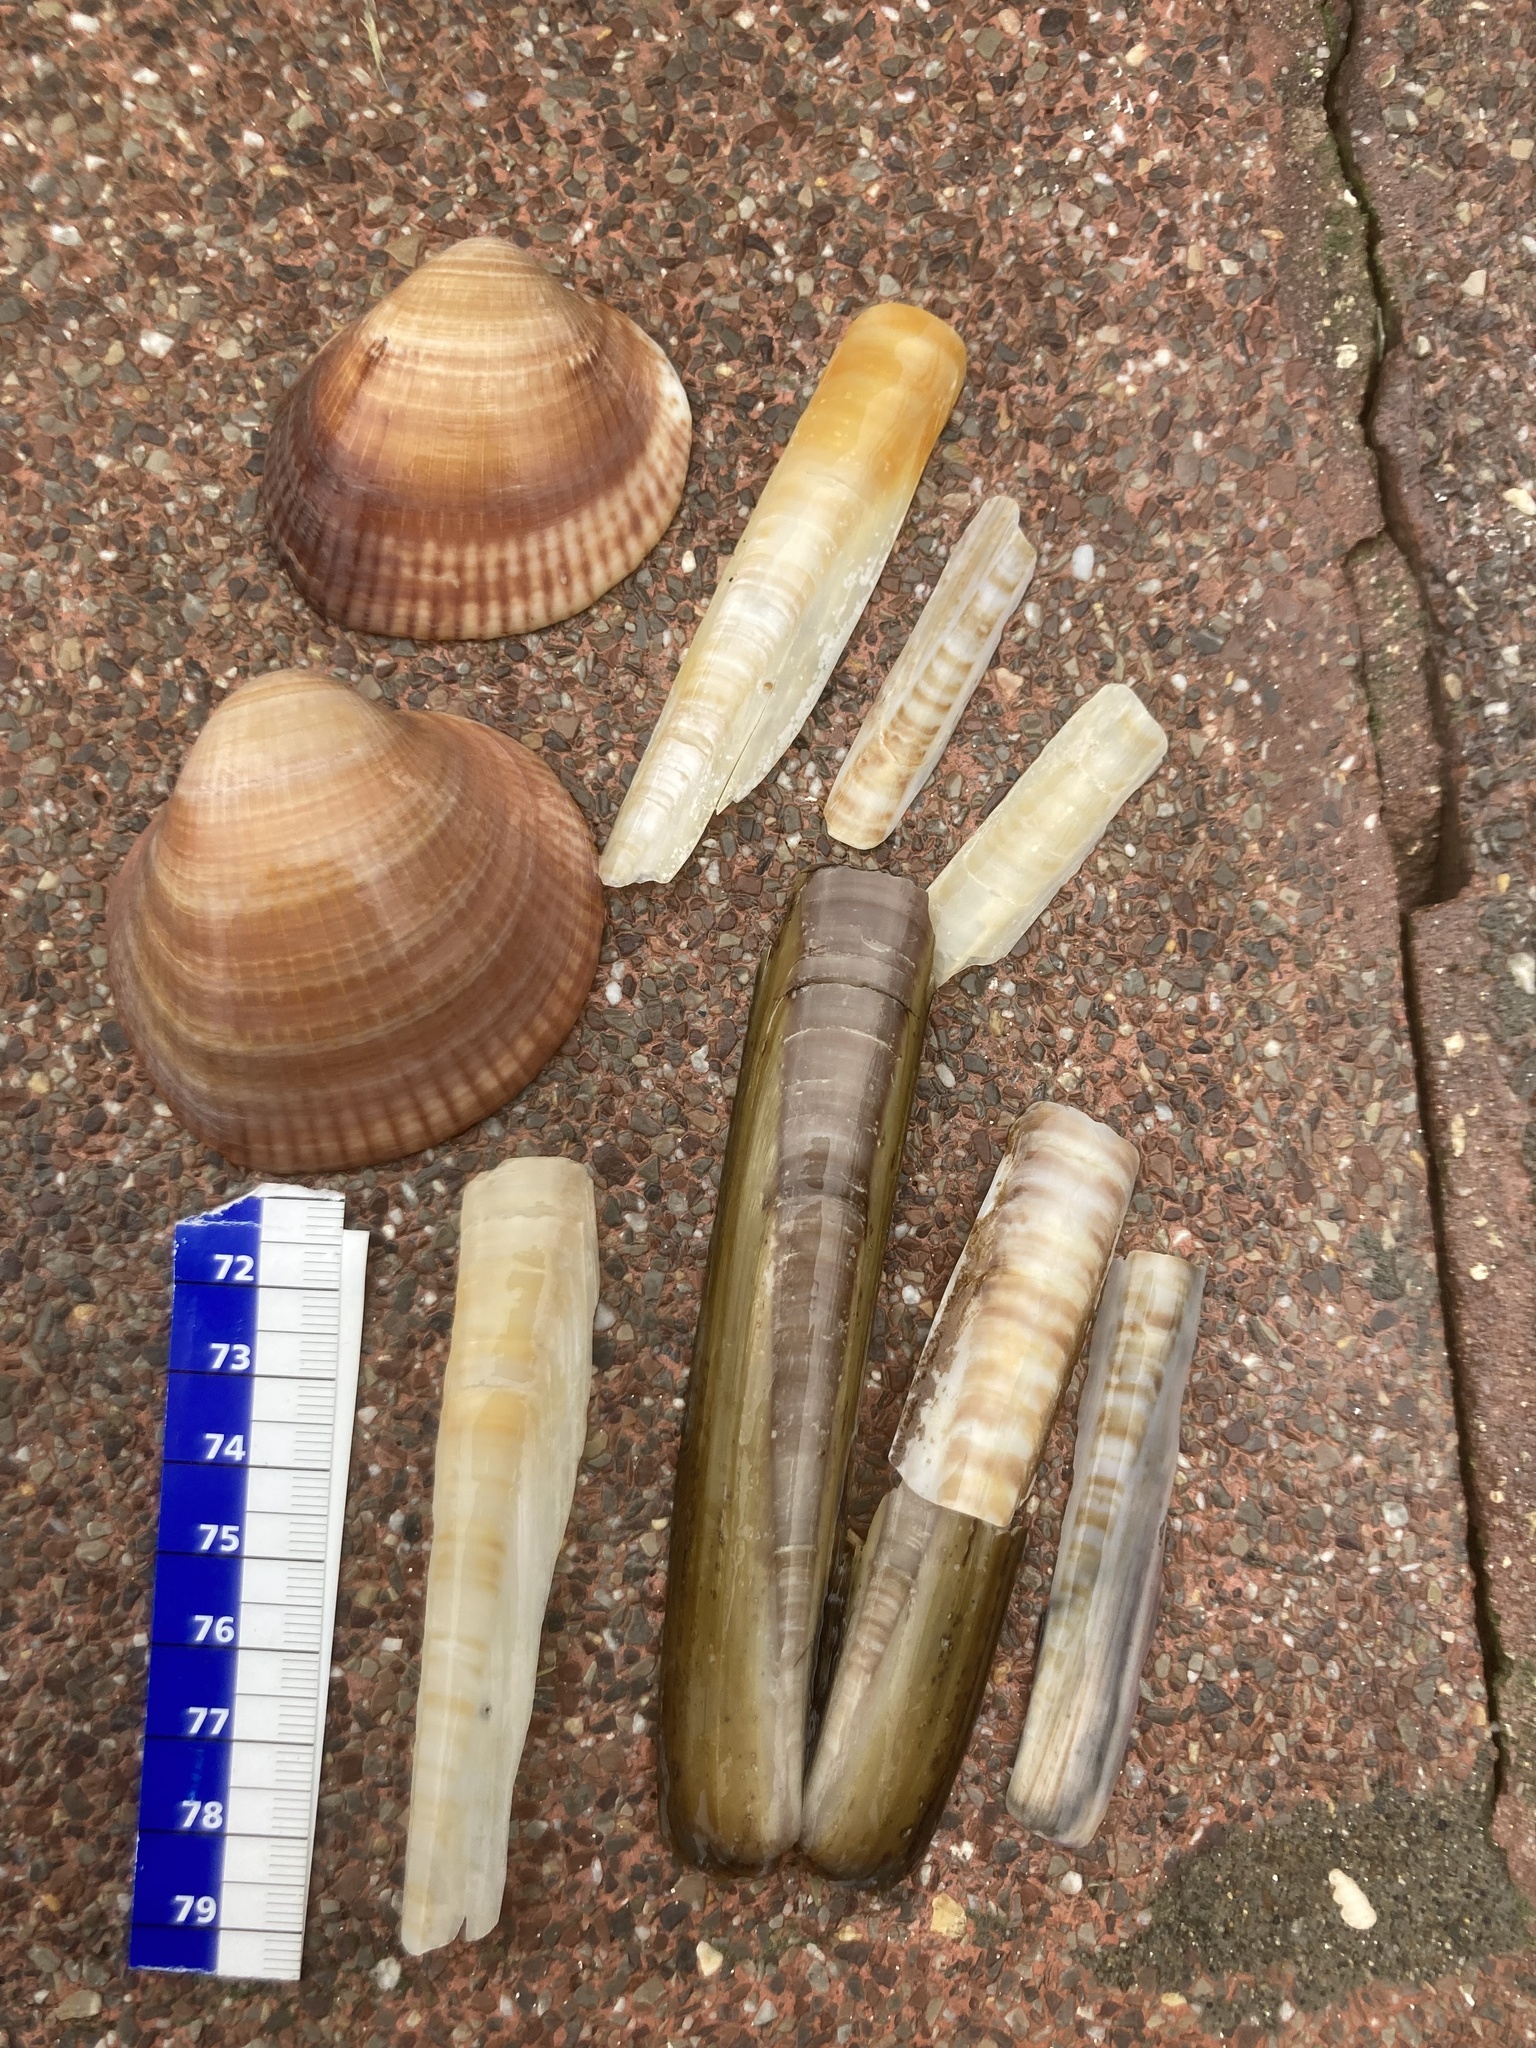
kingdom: Animalia
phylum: Mollusca
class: Bivalvia
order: Adapedonta
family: Pharidae
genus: Ensis
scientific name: Ensis minor
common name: Minor jackknife clam
